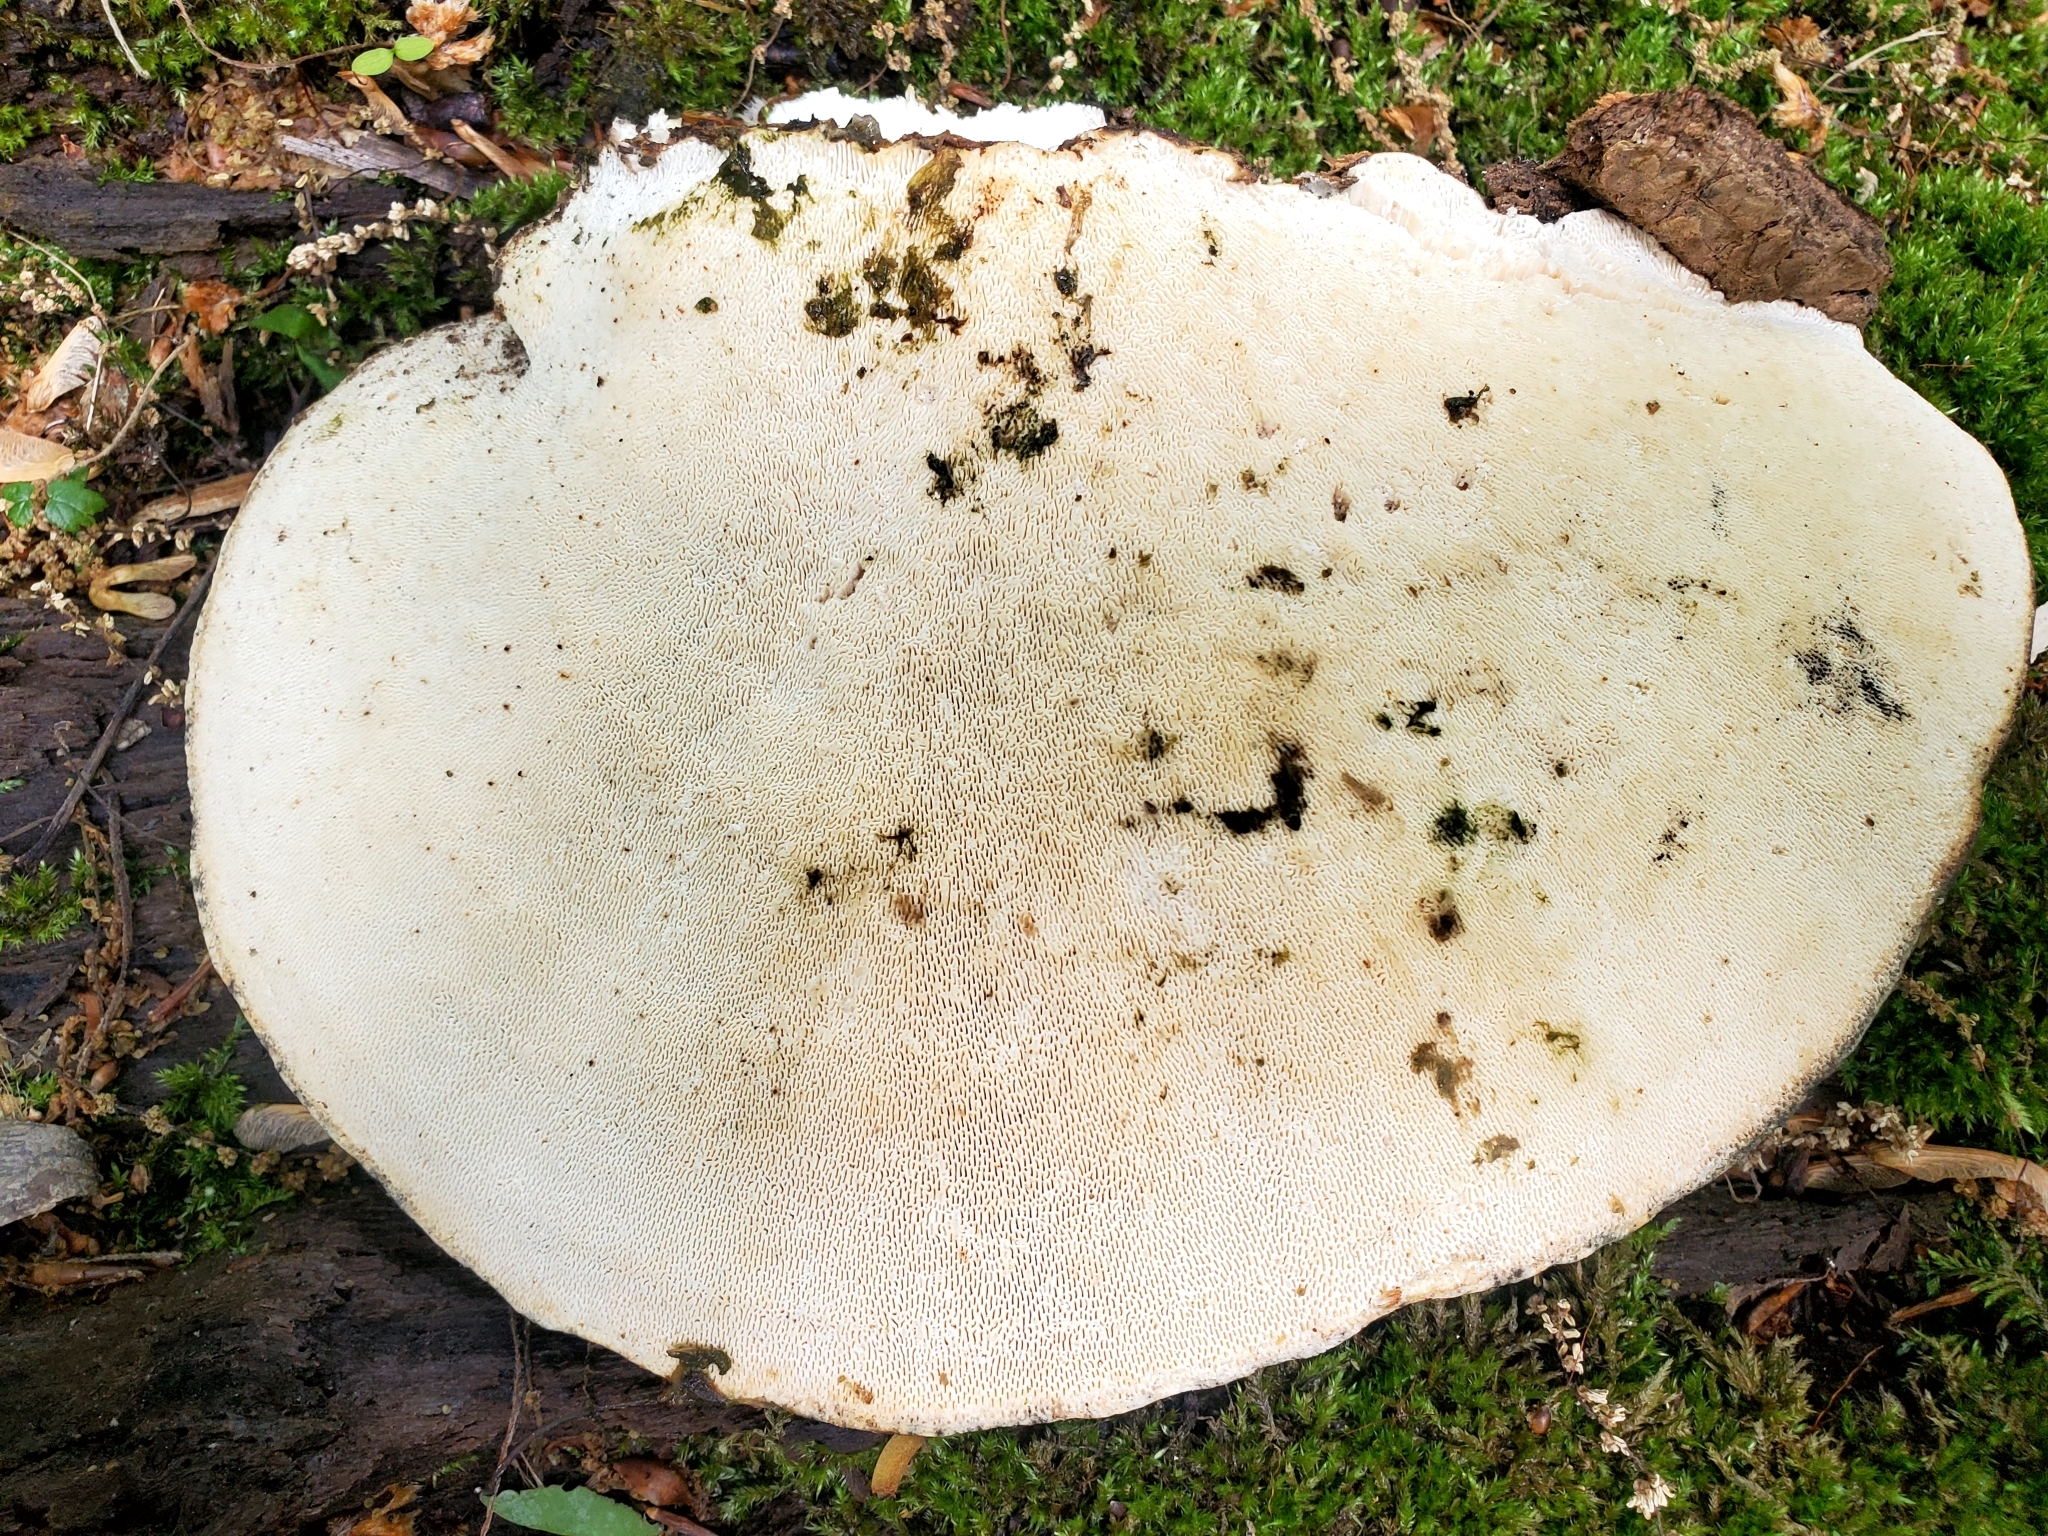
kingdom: Fungi
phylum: Basidiomycota
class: Agaricomycetes
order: Polyporales
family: Polyporaceae
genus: Trametes
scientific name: Trametes gibbosa
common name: Lumpy bracket
